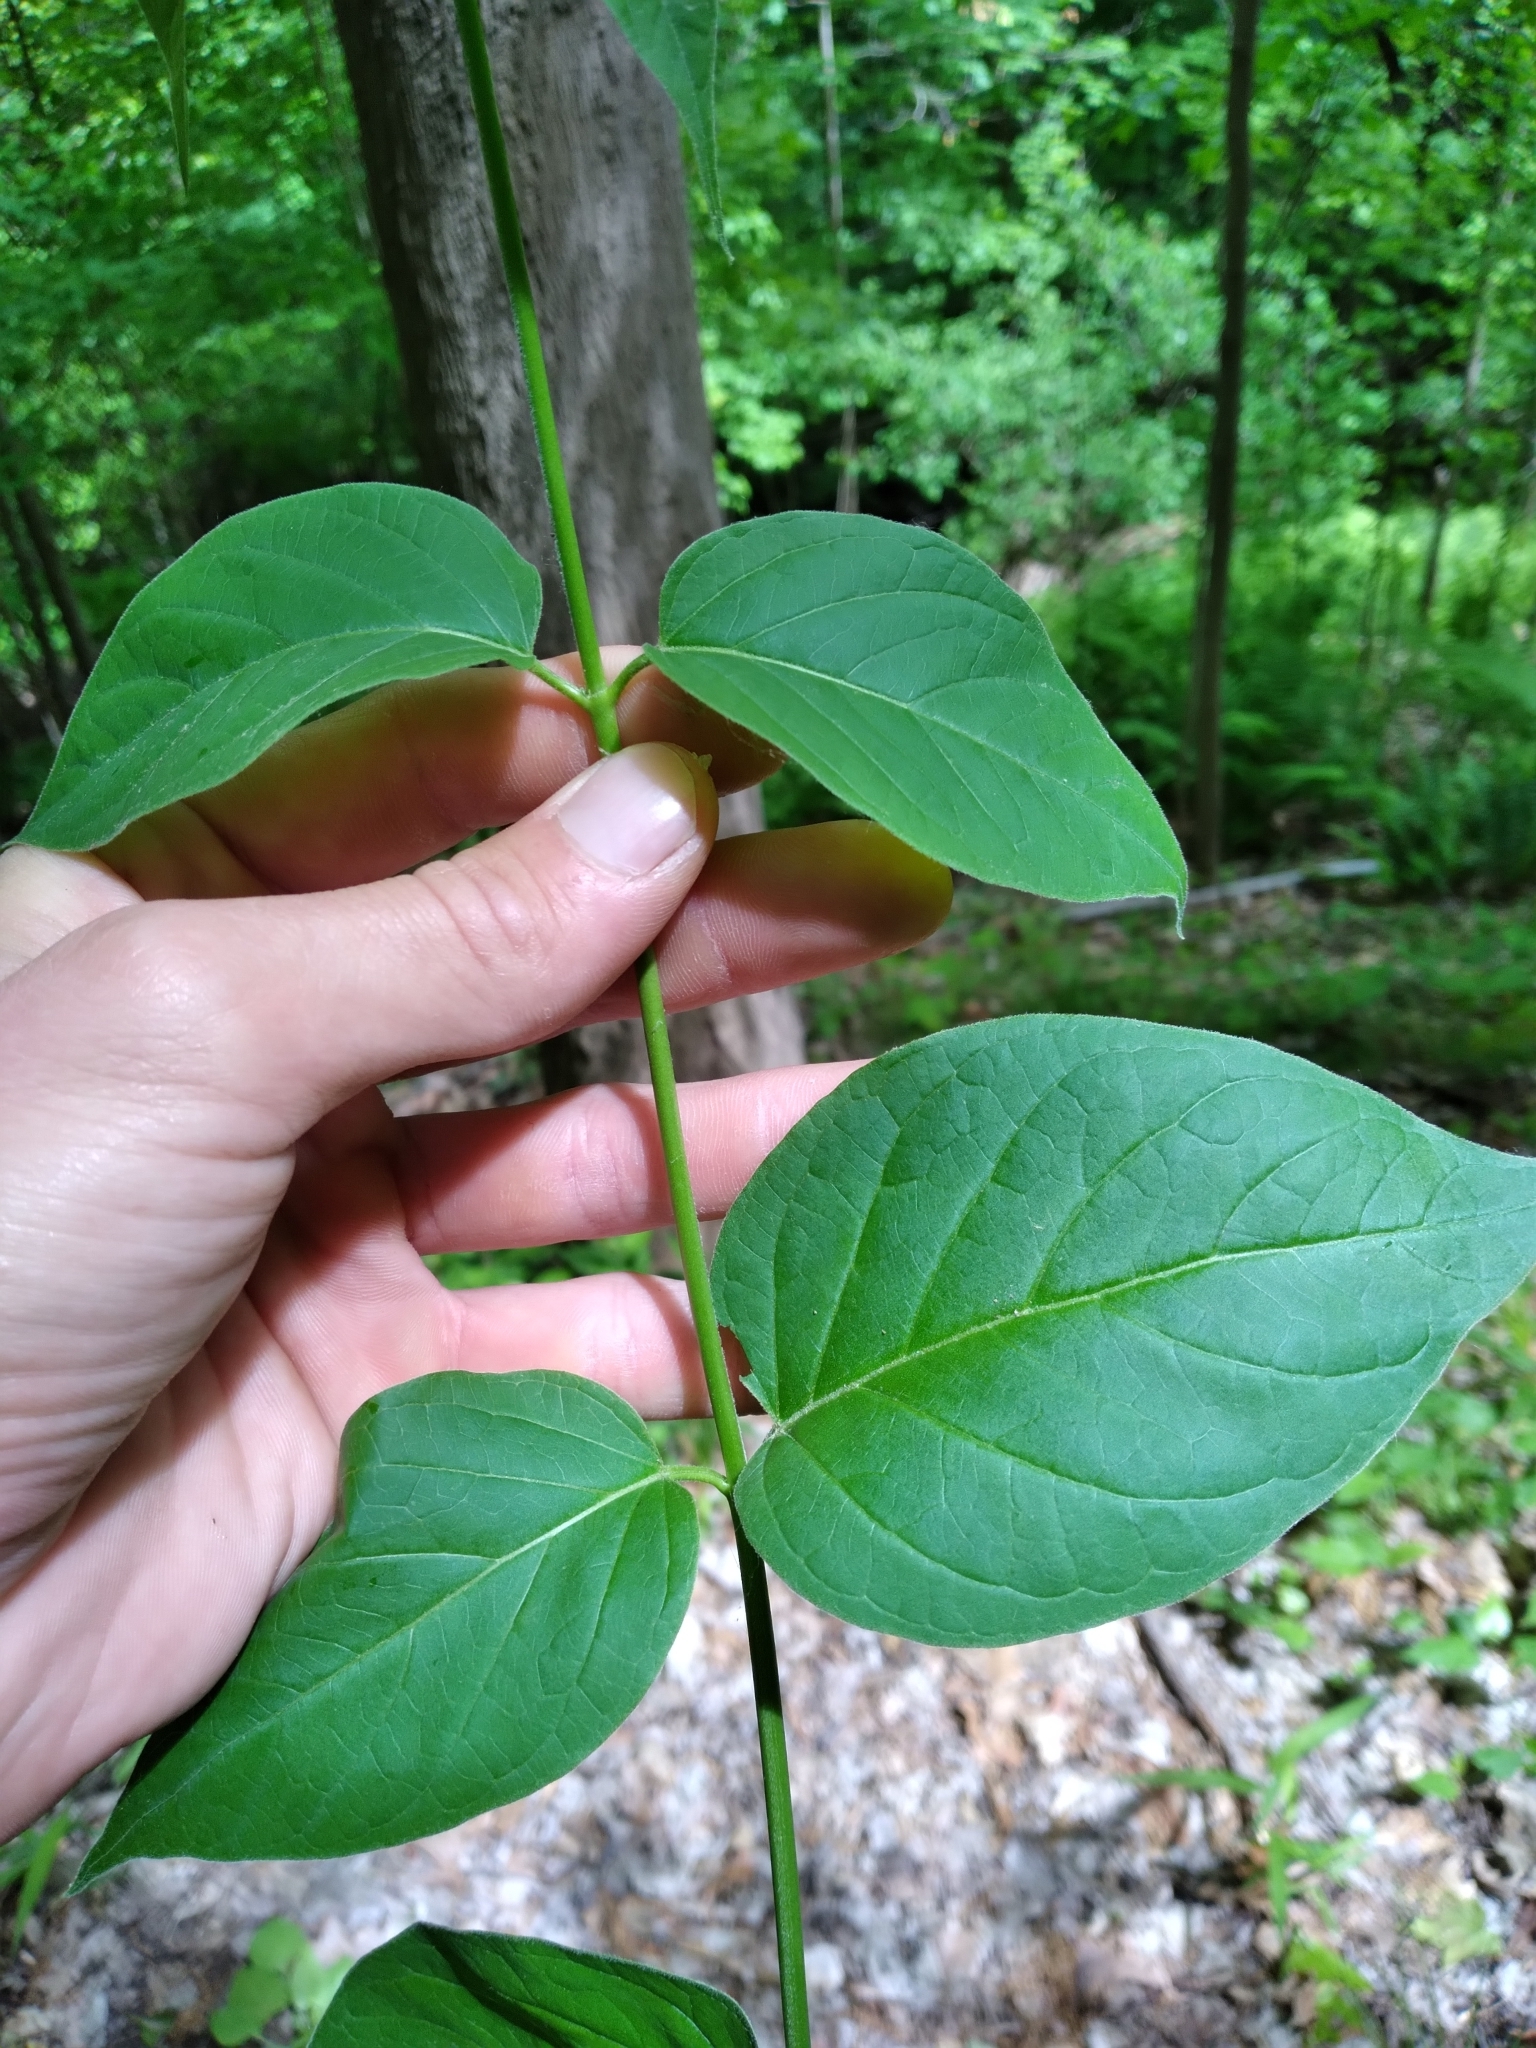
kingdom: Plantae
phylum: Tracheophyta
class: Magnoliopsida
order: Gentianales
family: Apocynaceae
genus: Vincetoxicum
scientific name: Vincetoxicum rossicum
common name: Dog-strangling vine
